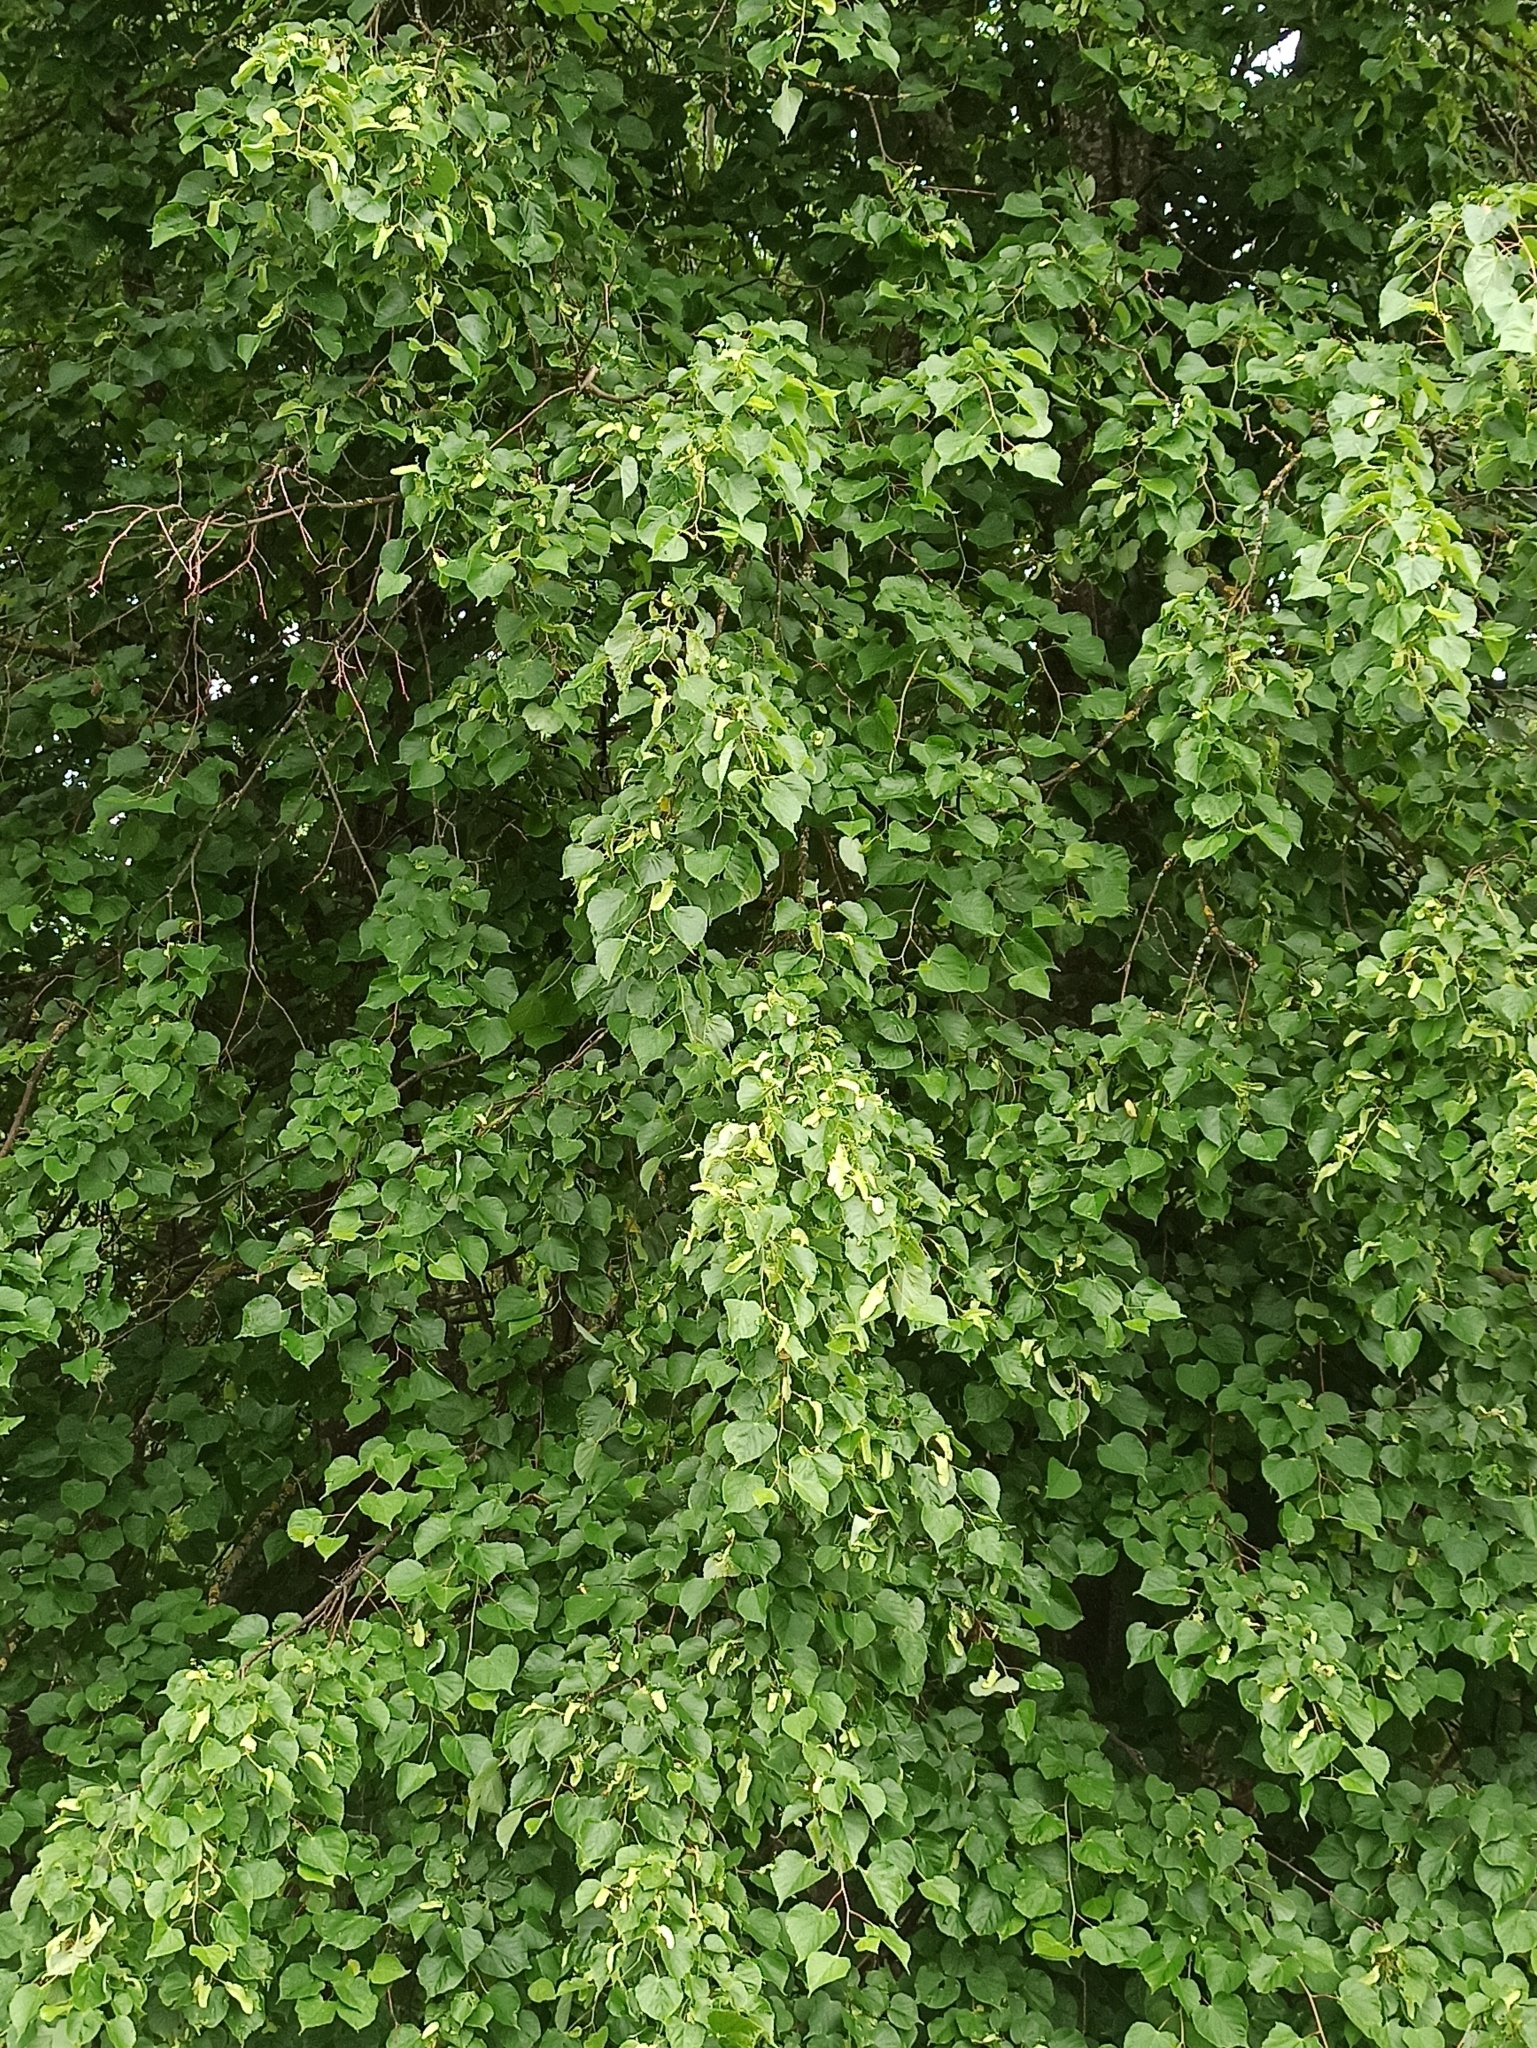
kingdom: Plantae
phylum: Tracheophyta
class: Magnoliopsida
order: Malvales
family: Malvaceae
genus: Tilia
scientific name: Tilia cordata
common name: Small-leaved lime
